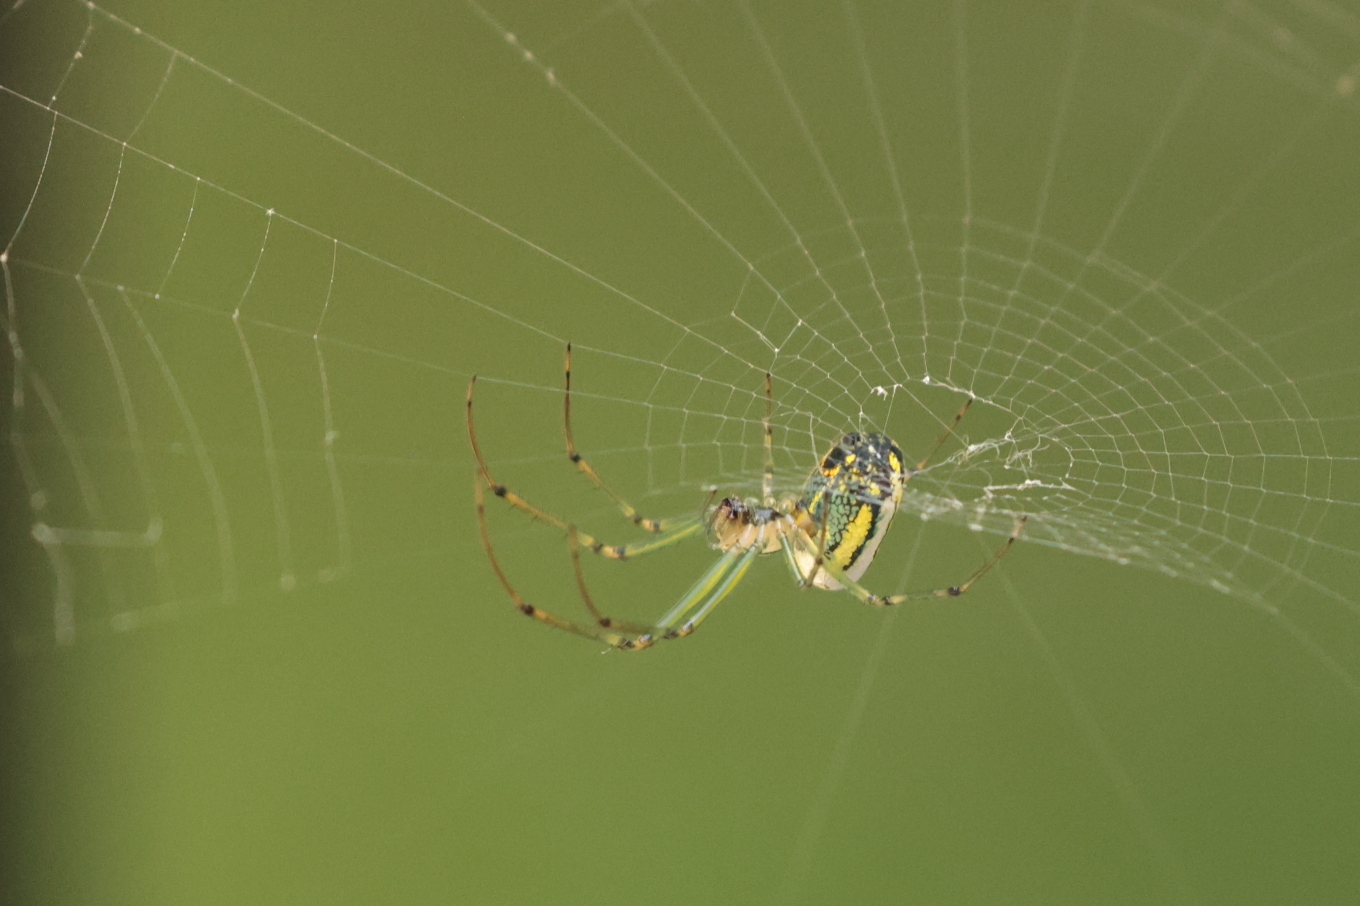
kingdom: Animalia
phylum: Arthropoda
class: Arachnida
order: Araneae
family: Tetragnathidae
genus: Leucauge
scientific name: Leucauge venusta
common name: Longjawed orb weavers
